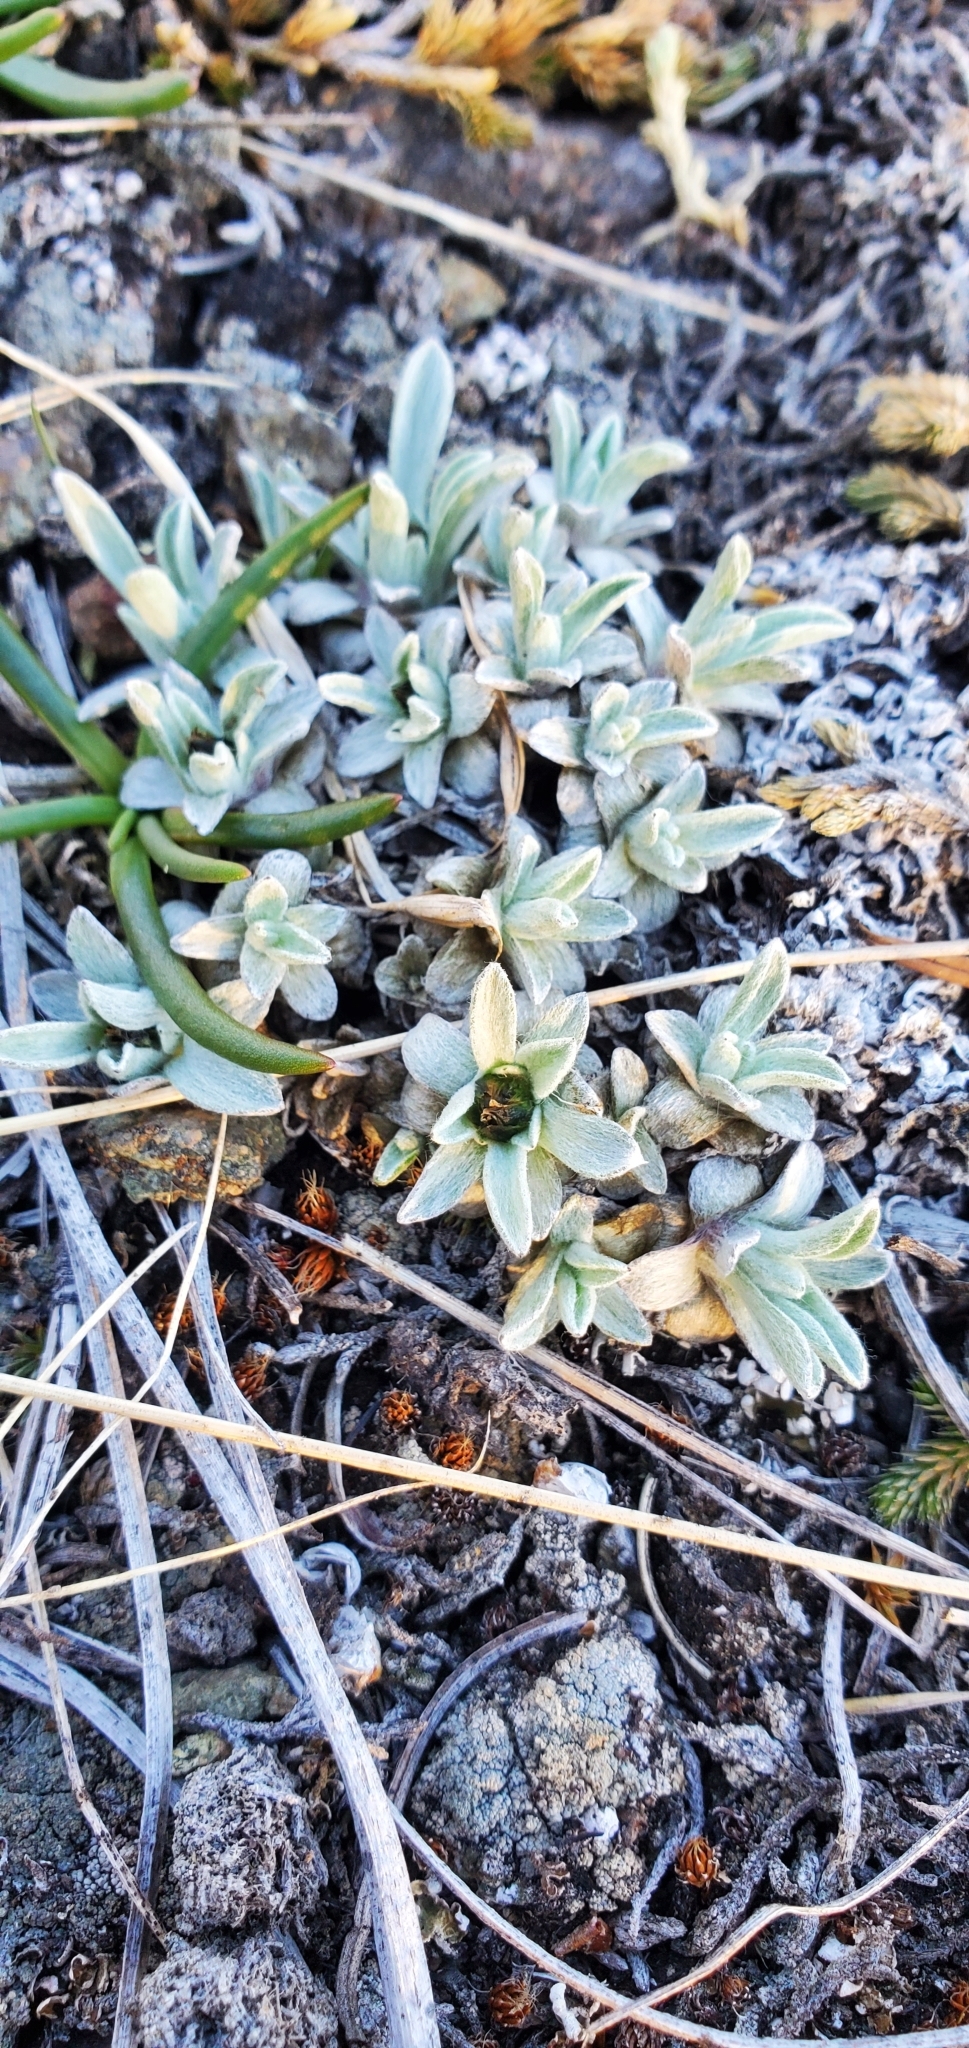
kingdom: Plantae
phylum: Tracheophyta
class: Magnoliopsida
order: Asterales
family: Asteraceae
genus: Antennaria
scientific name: Antennaria dimorpha
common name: Cushion pussytoes
